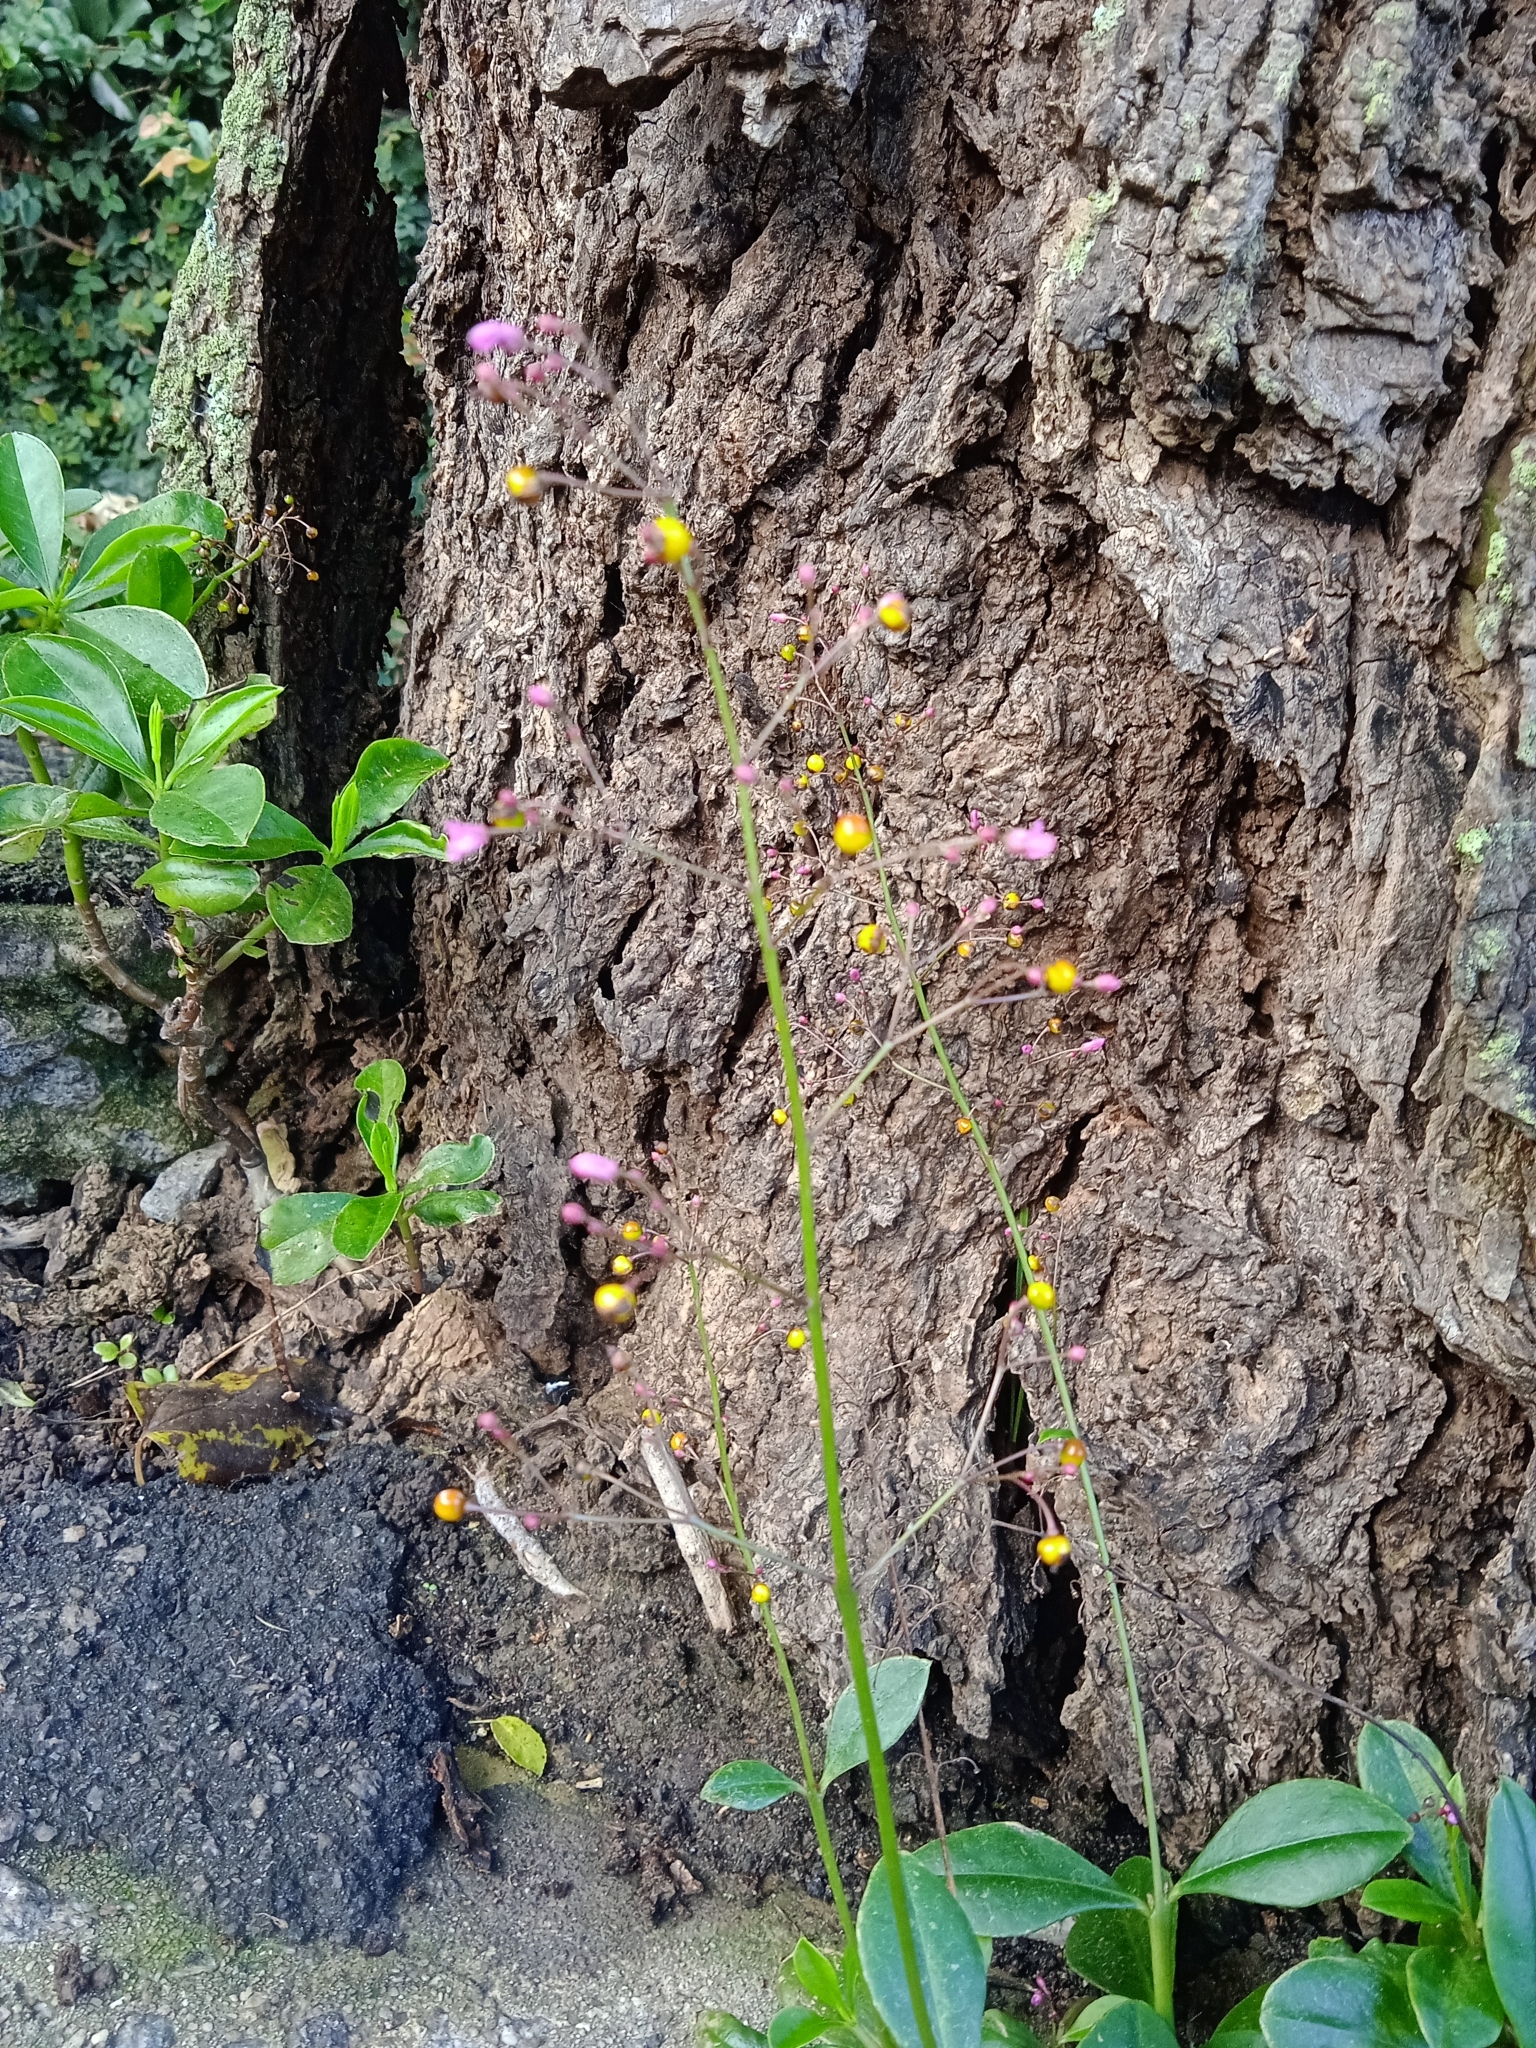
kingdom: Plantae
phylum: Tracheophyta
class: Magnoliopsida
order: Caryophyllales
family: Talinaceae
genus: Talinum
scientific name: Talinum paniculatum
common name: Jewels of opar
